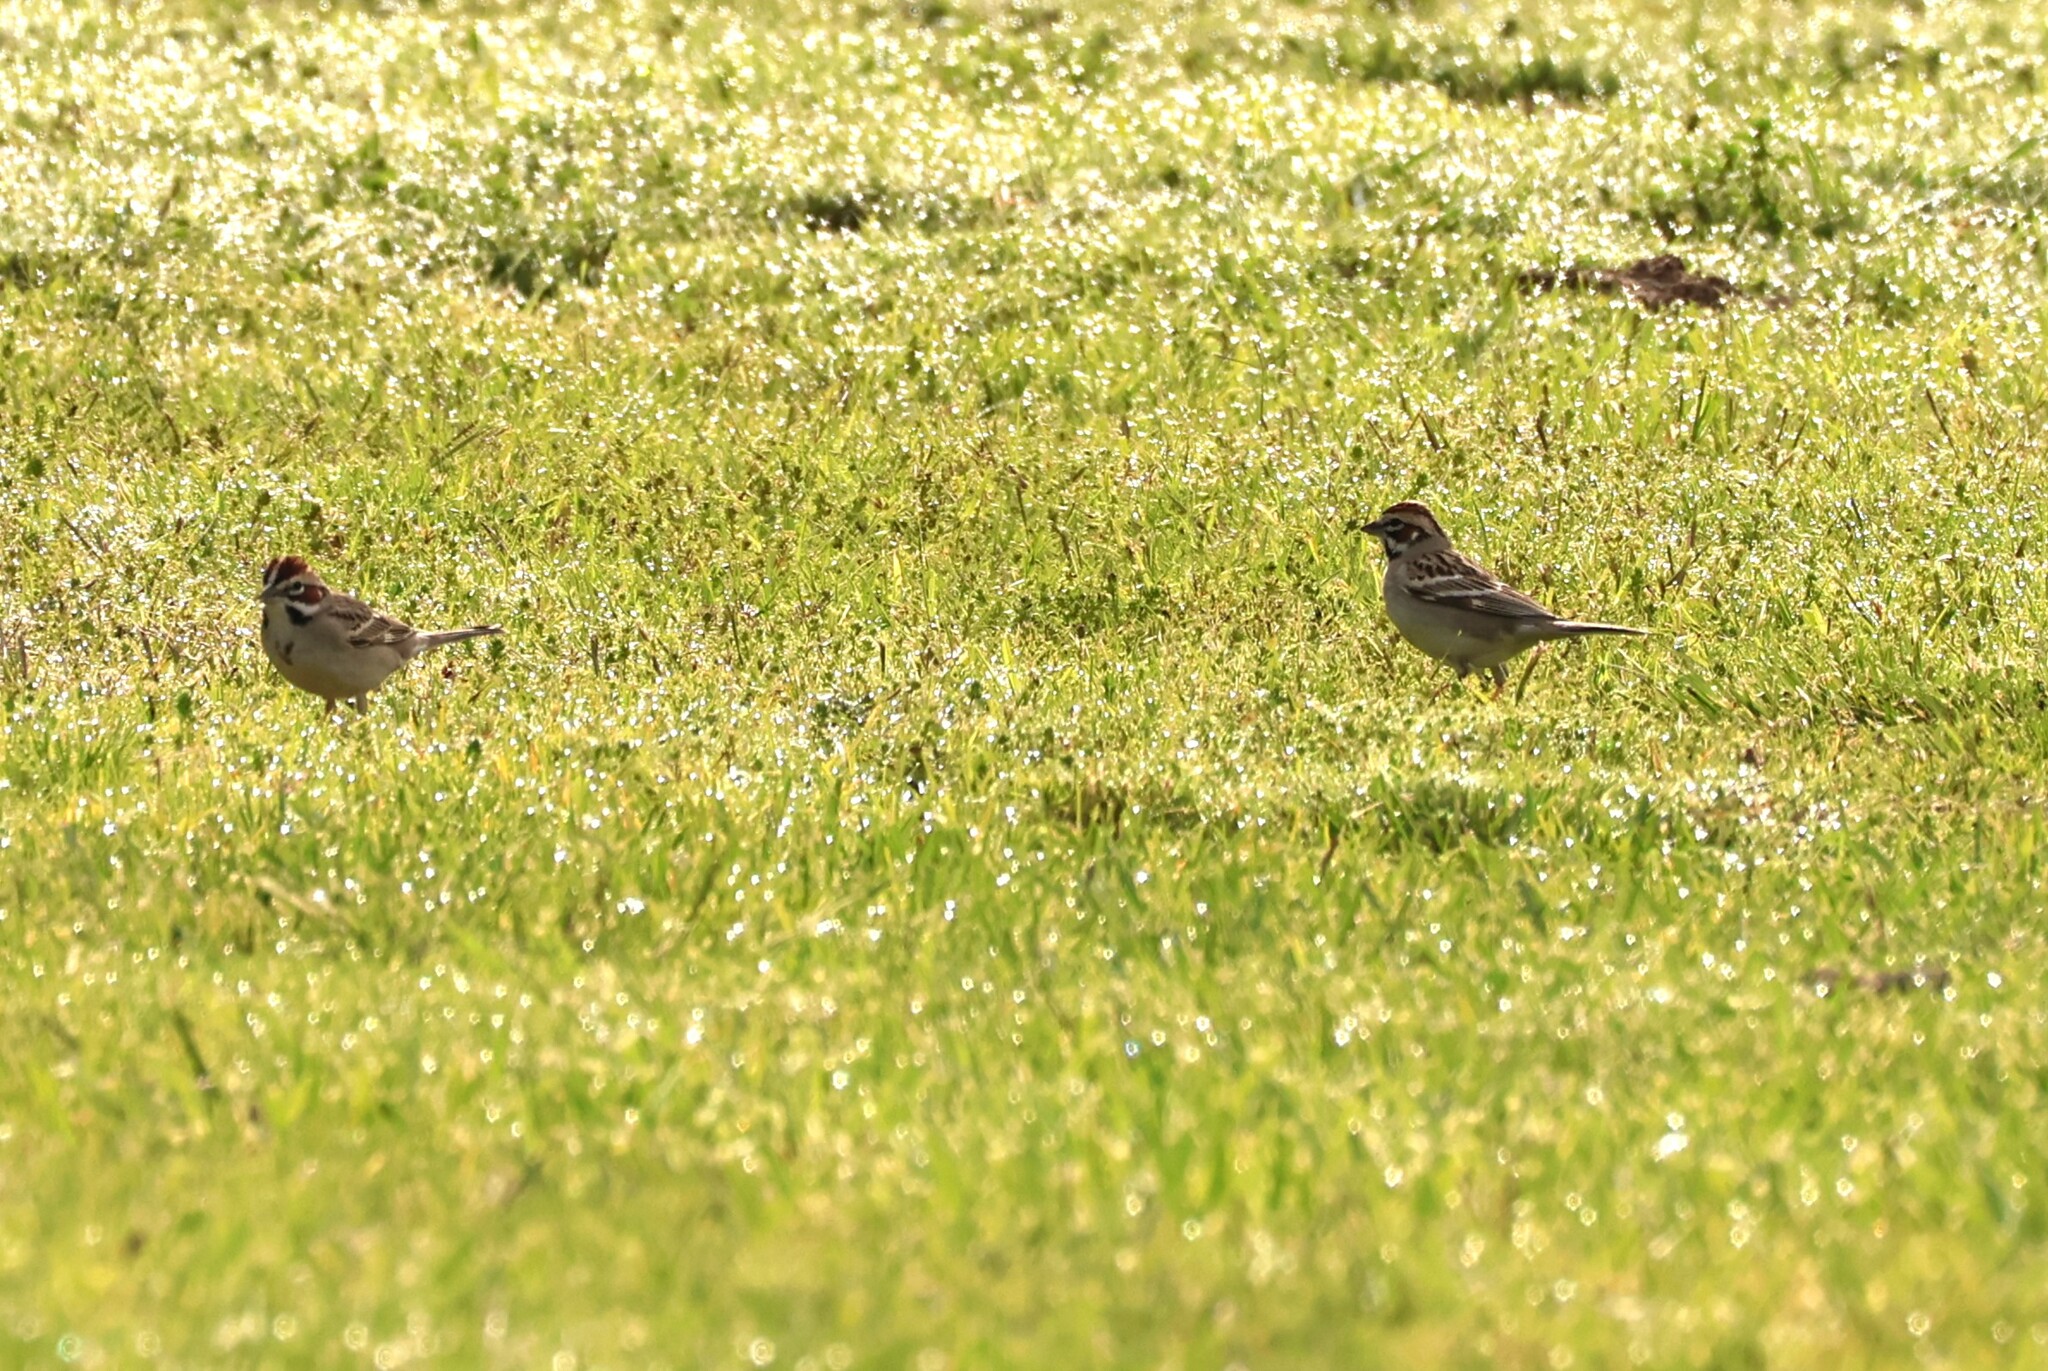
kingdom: Animalia
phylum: Chordata
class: Aves
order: Passeriformes
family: Passerellidae
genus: Chondestes
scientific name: Chondestes grammacus
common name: Lark sparrow
